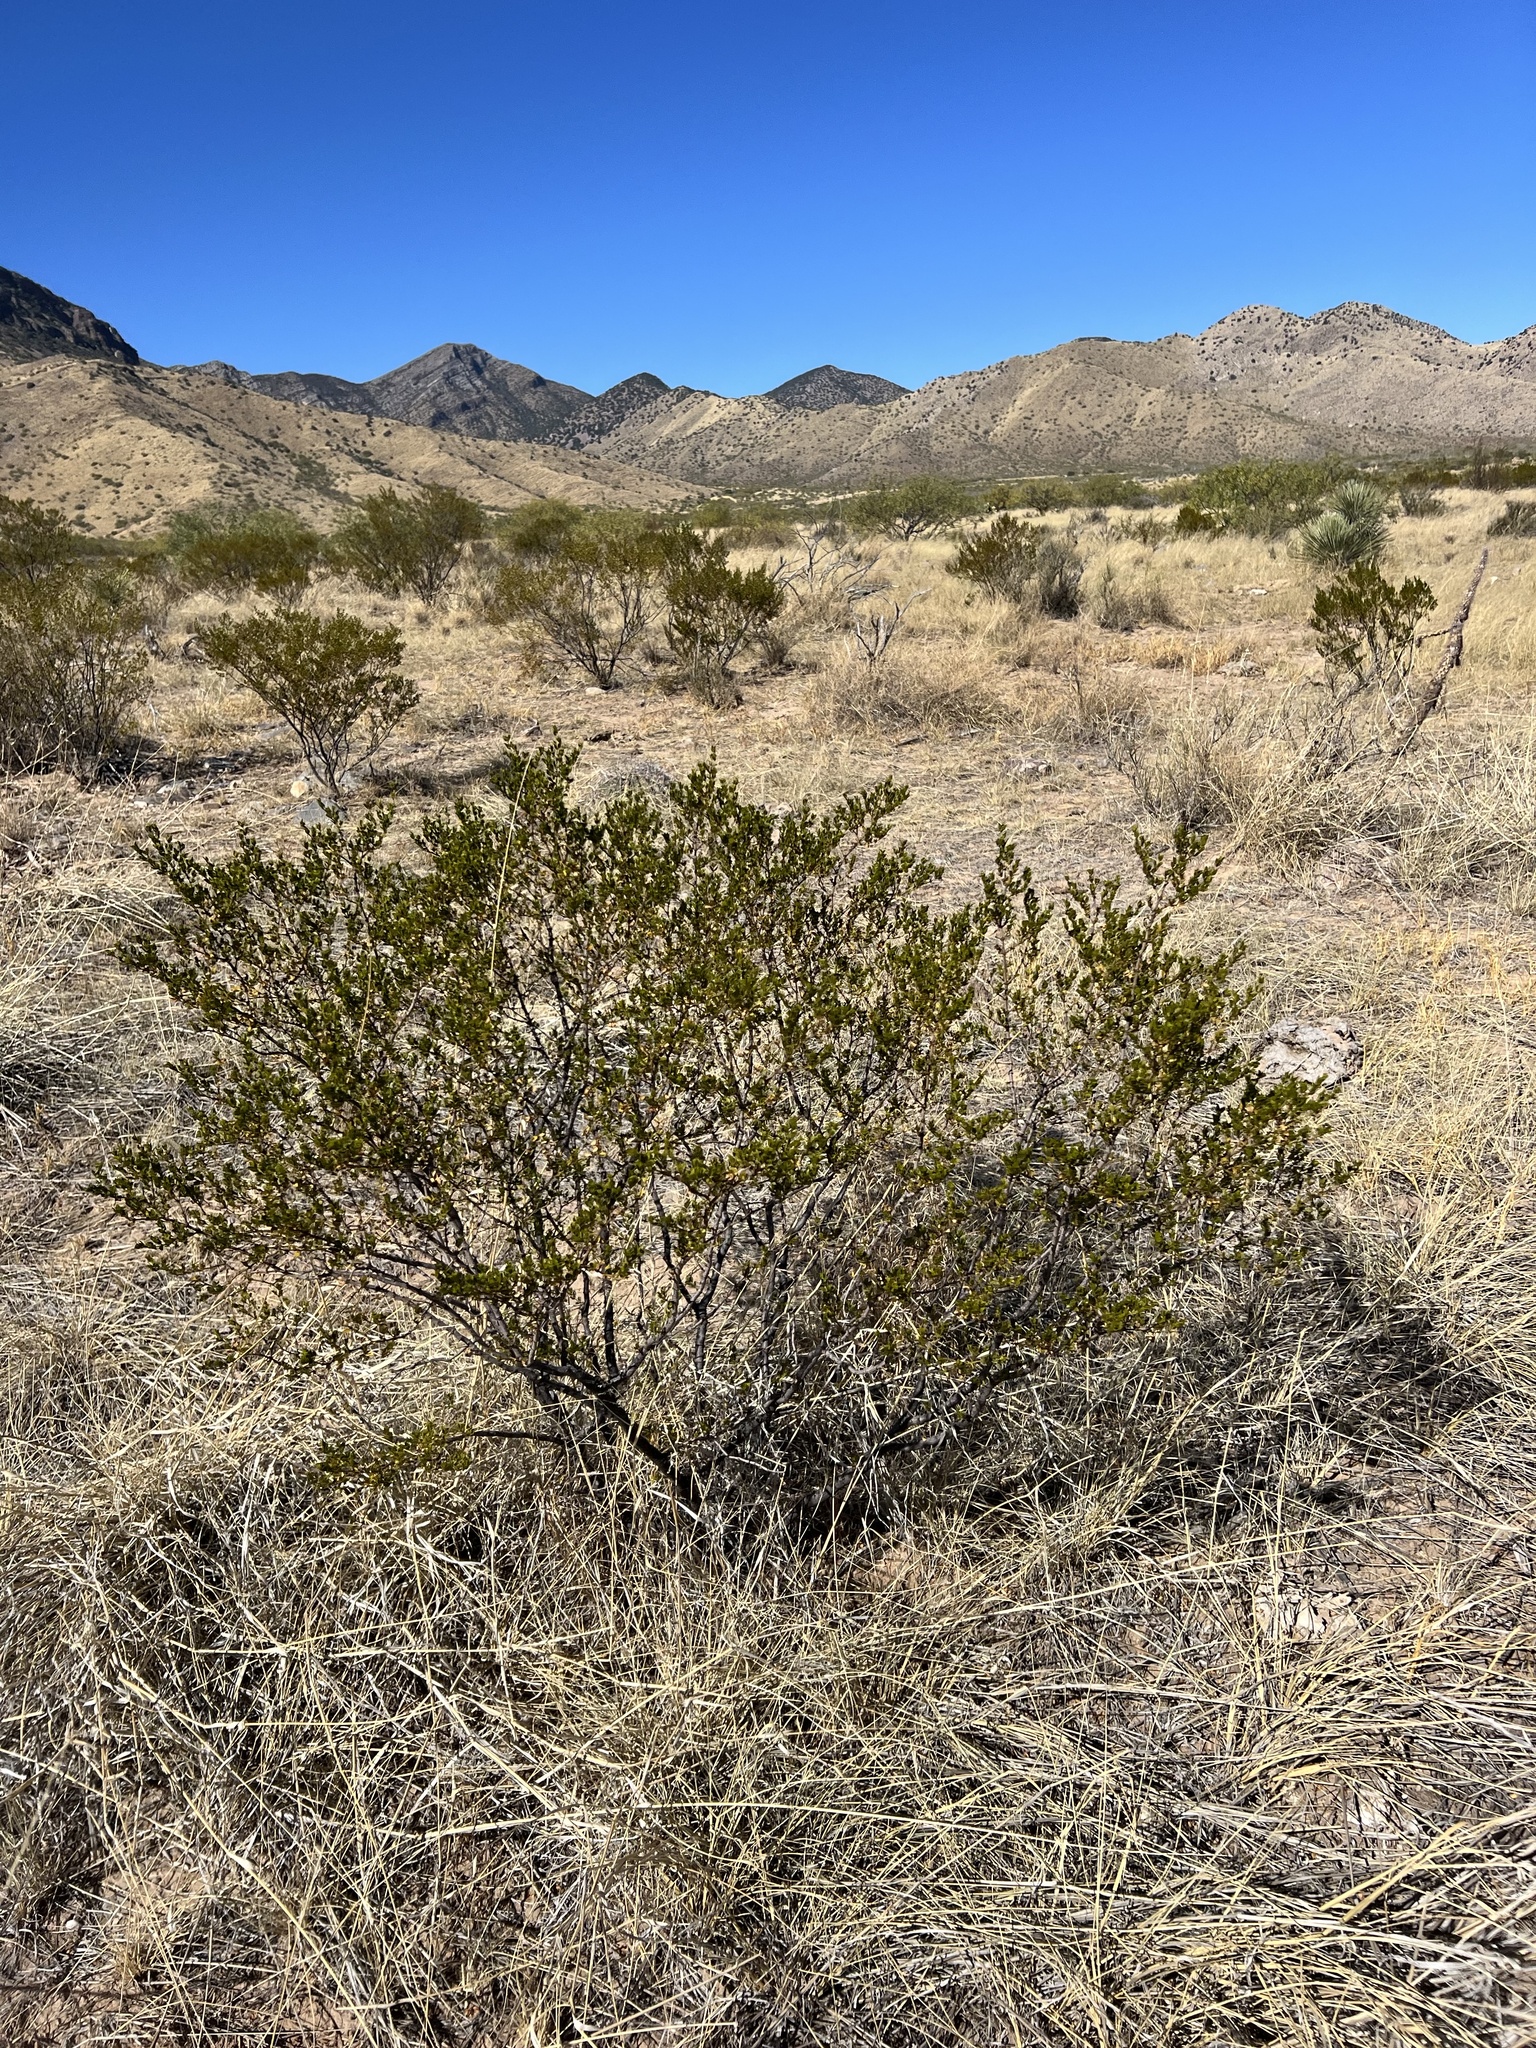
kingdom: Plantae
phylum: Tracheophyta
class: Magnoliopsida
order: Zygophyllales
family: Zygophyllaceae
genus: Larrea
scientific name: Larrea tridentata
